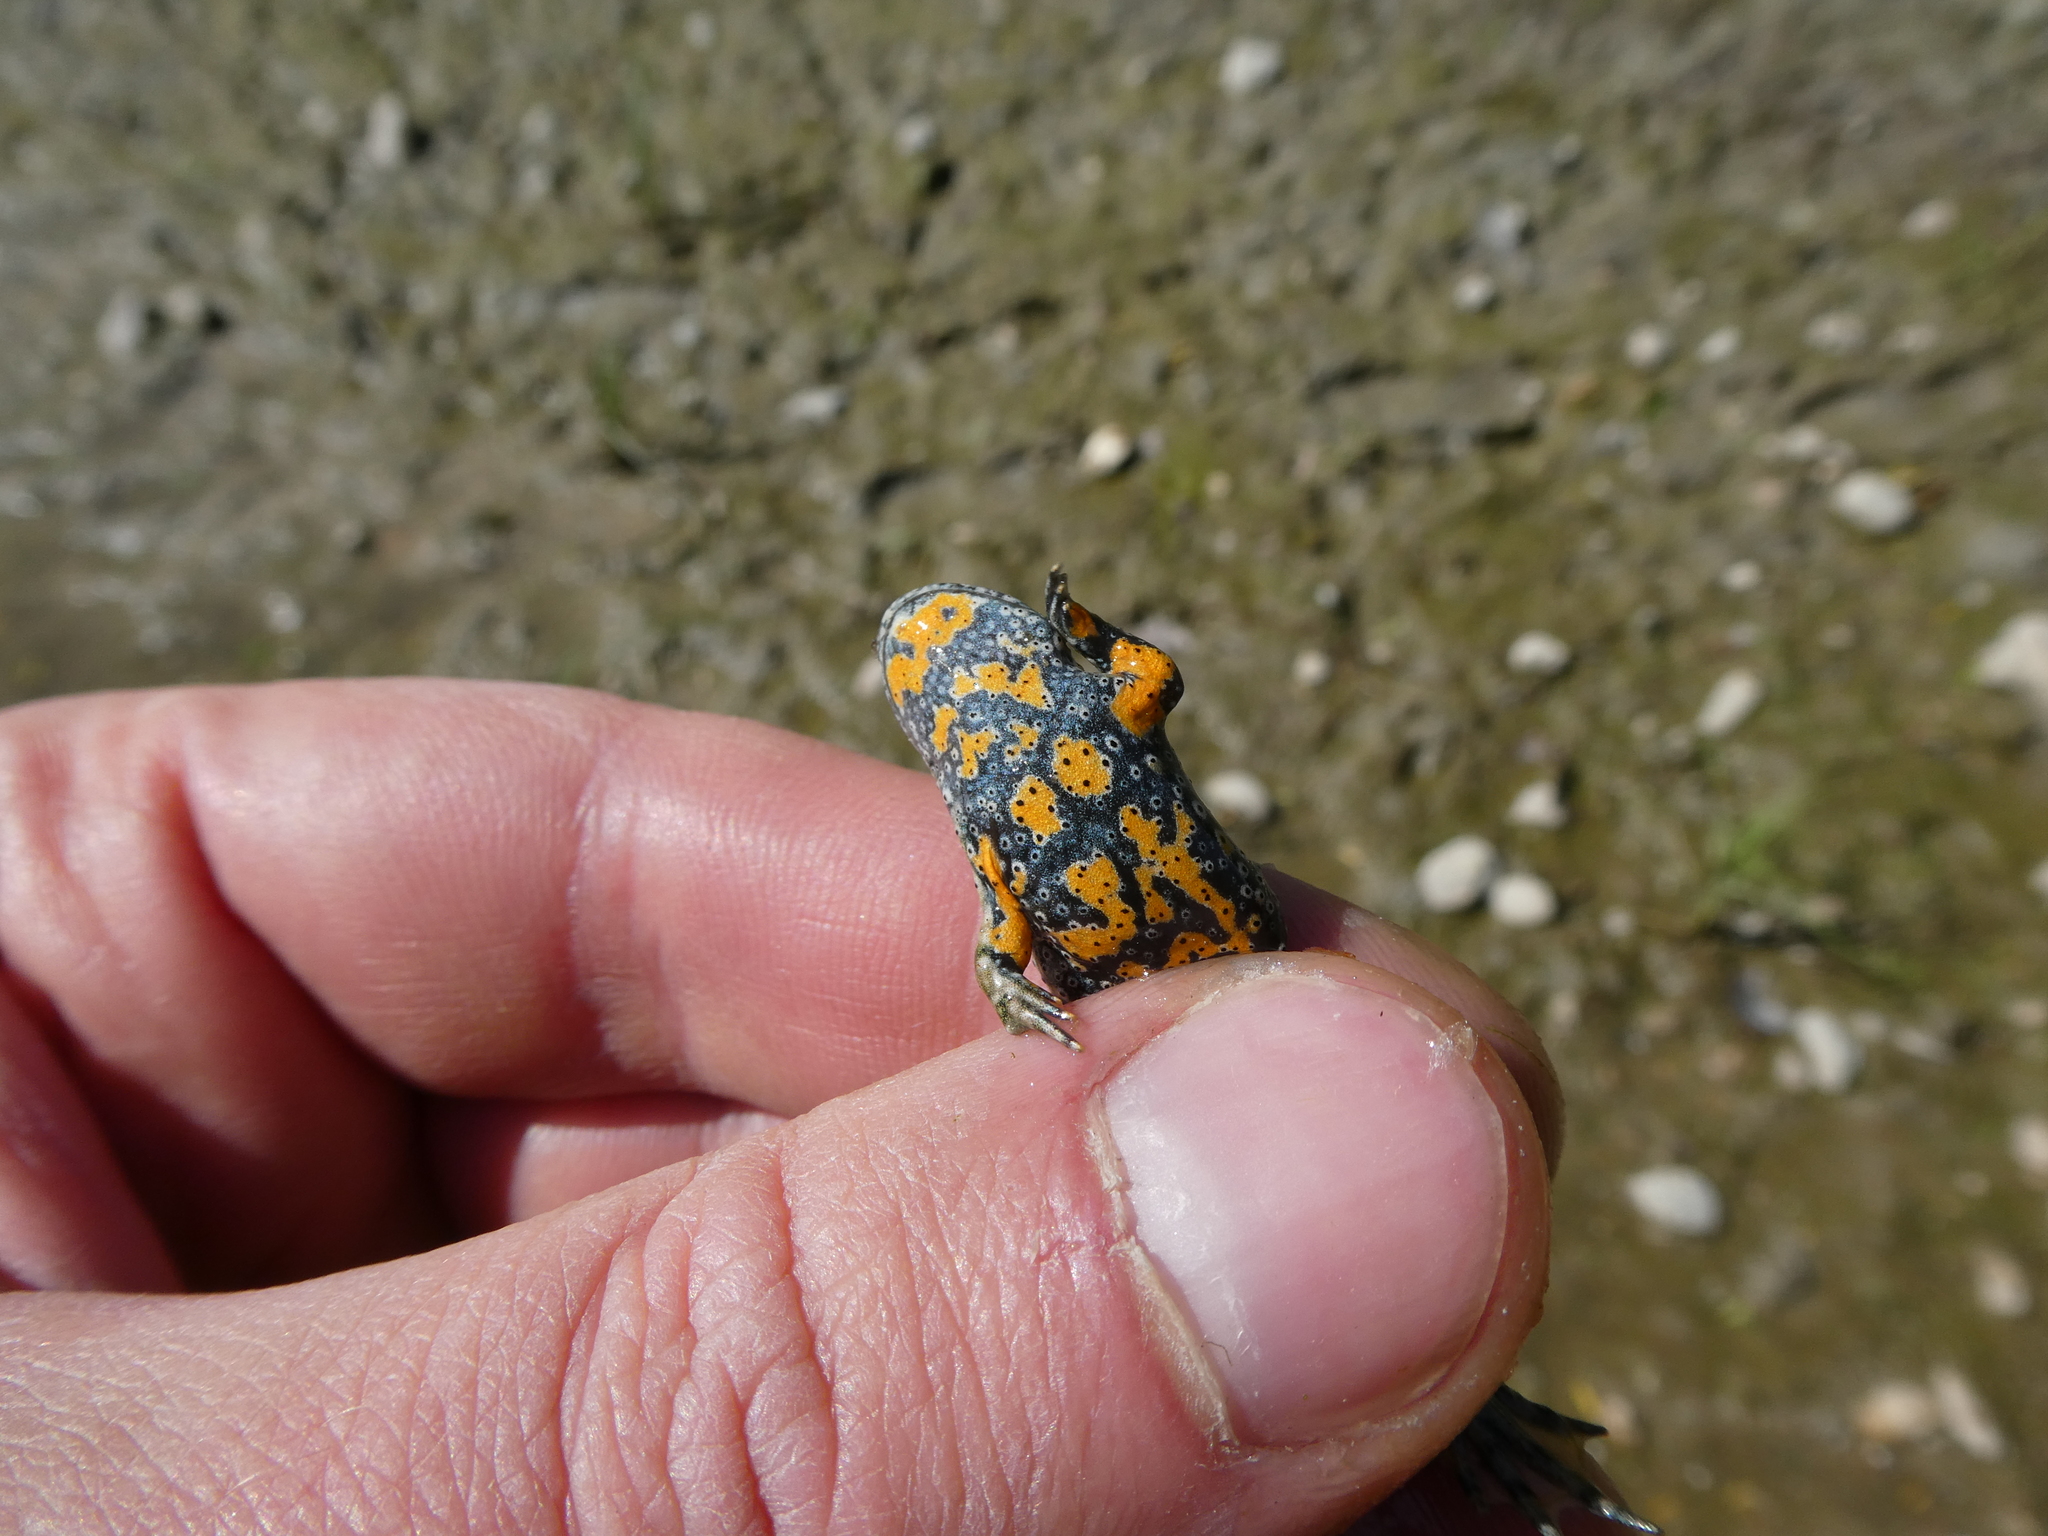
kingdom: Animalia
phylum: Chordata
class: Amphibia
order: Anura
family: Bombinatoridae
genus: Bombina
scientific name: Bombina bombina
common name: Fire-bellied toad
